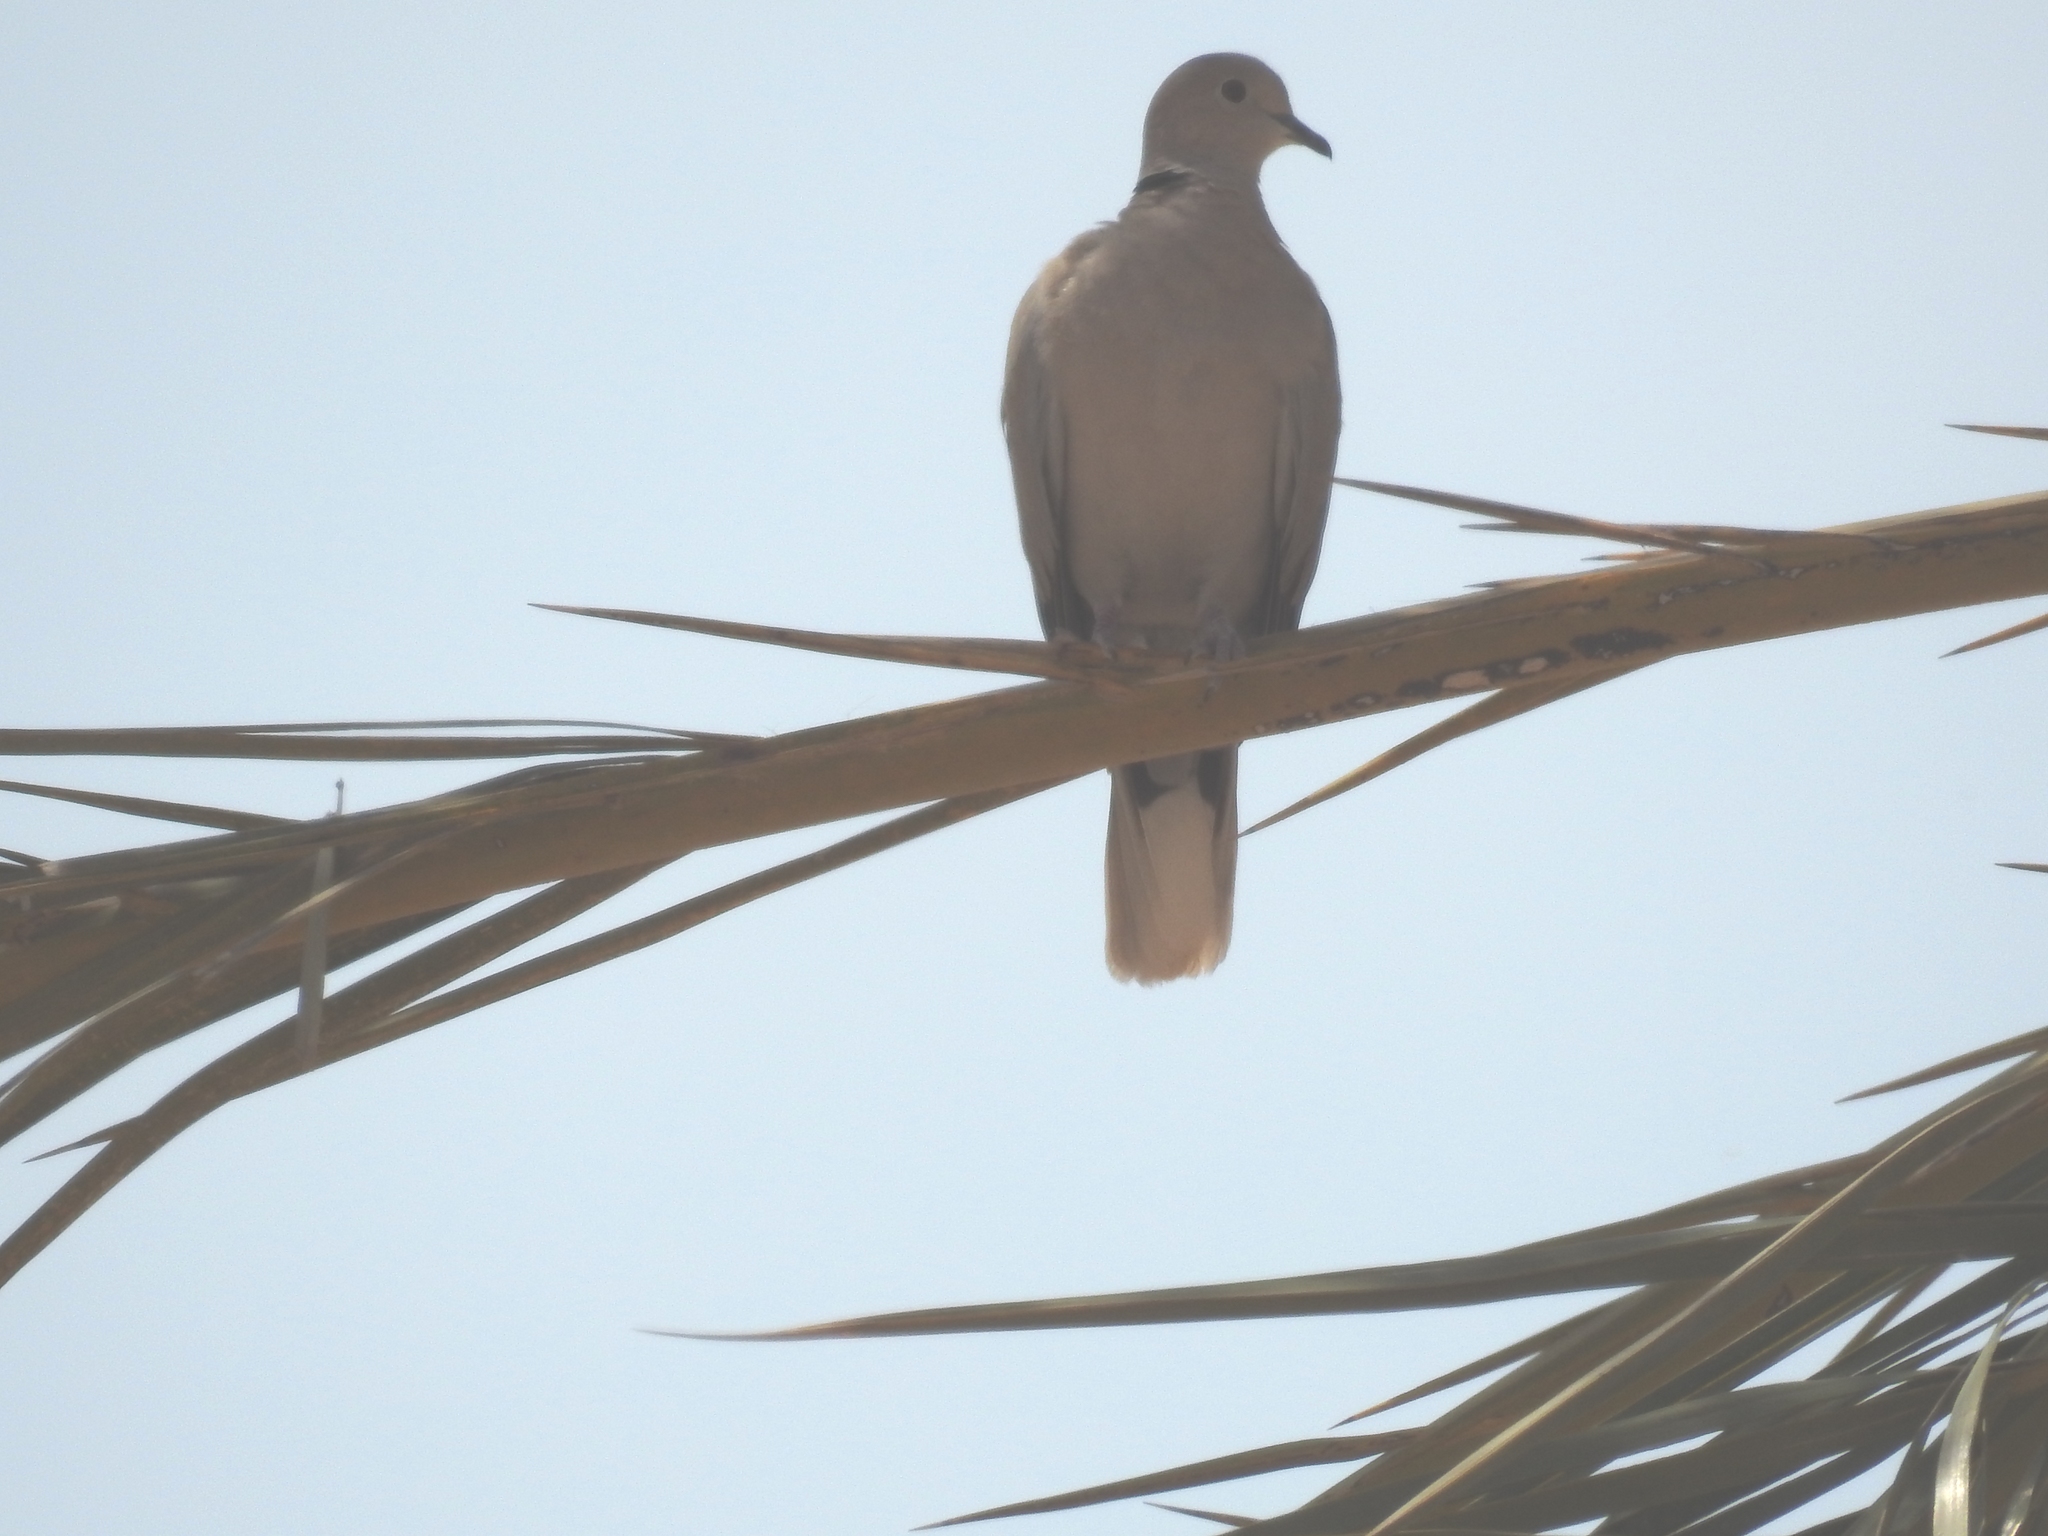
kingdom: Animalia
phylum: Chordata
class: Aves
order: Columbiformes
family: Columbidae
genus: Streptopelia
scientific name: Streptopelia decaocto
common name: Eurasian collared dove
